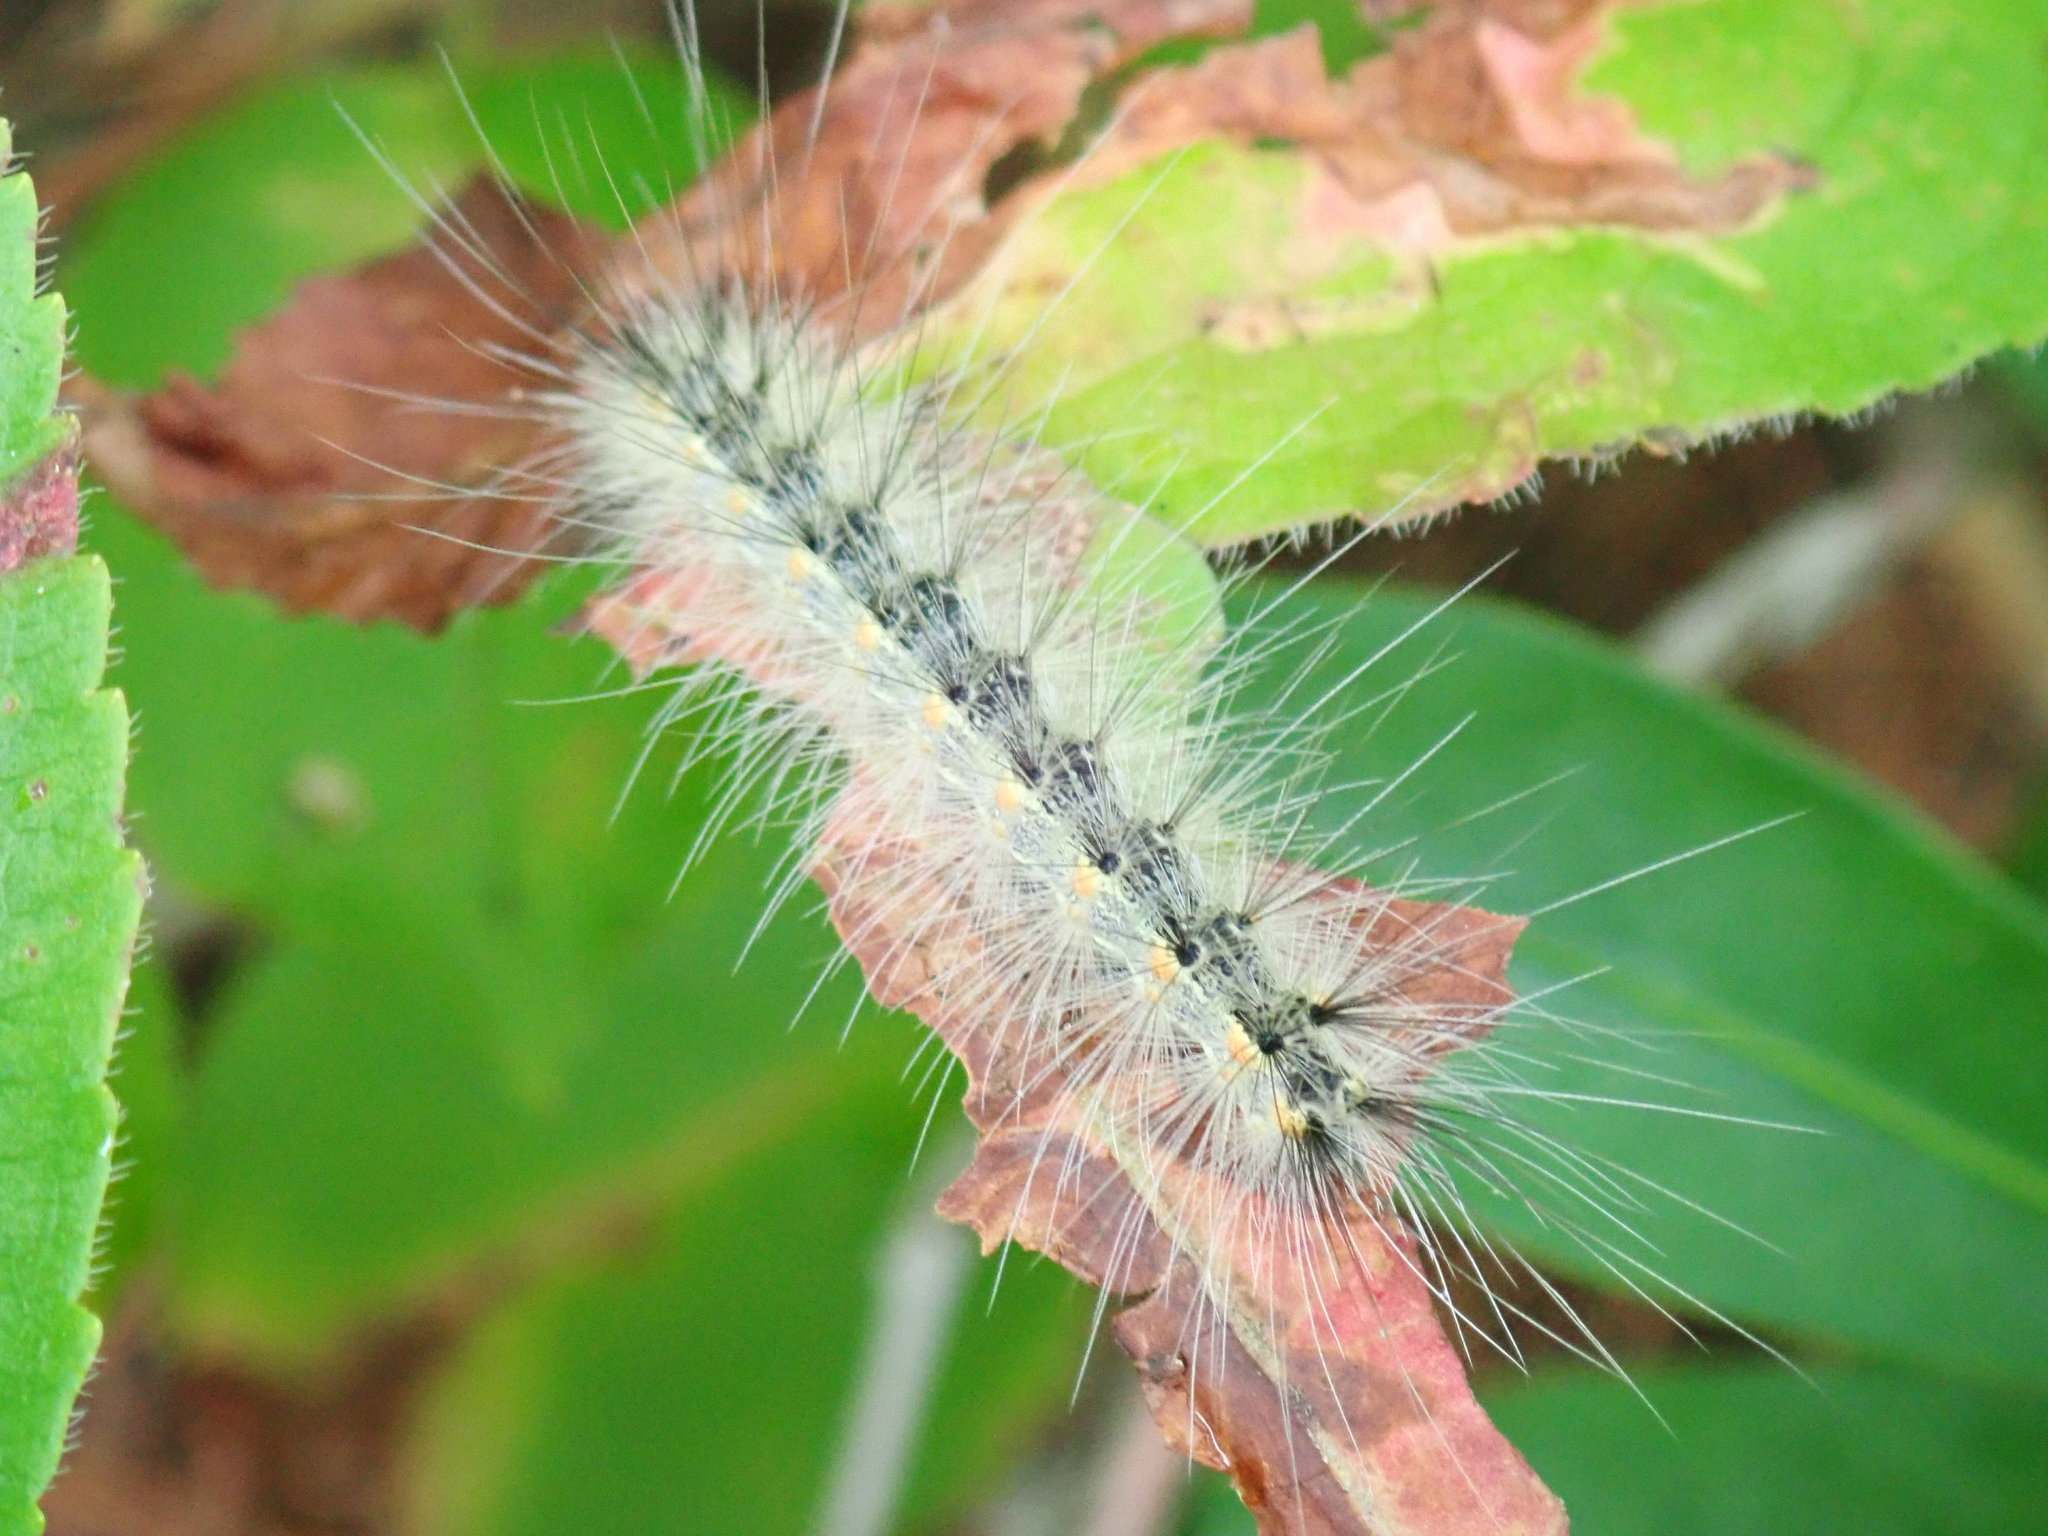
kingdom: Animalia
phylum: Arthropoda
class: Insecta
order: Lepidoptera
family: Erebidae
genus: Hyphantria
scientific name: Hyphantria cunea
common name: American white moth
